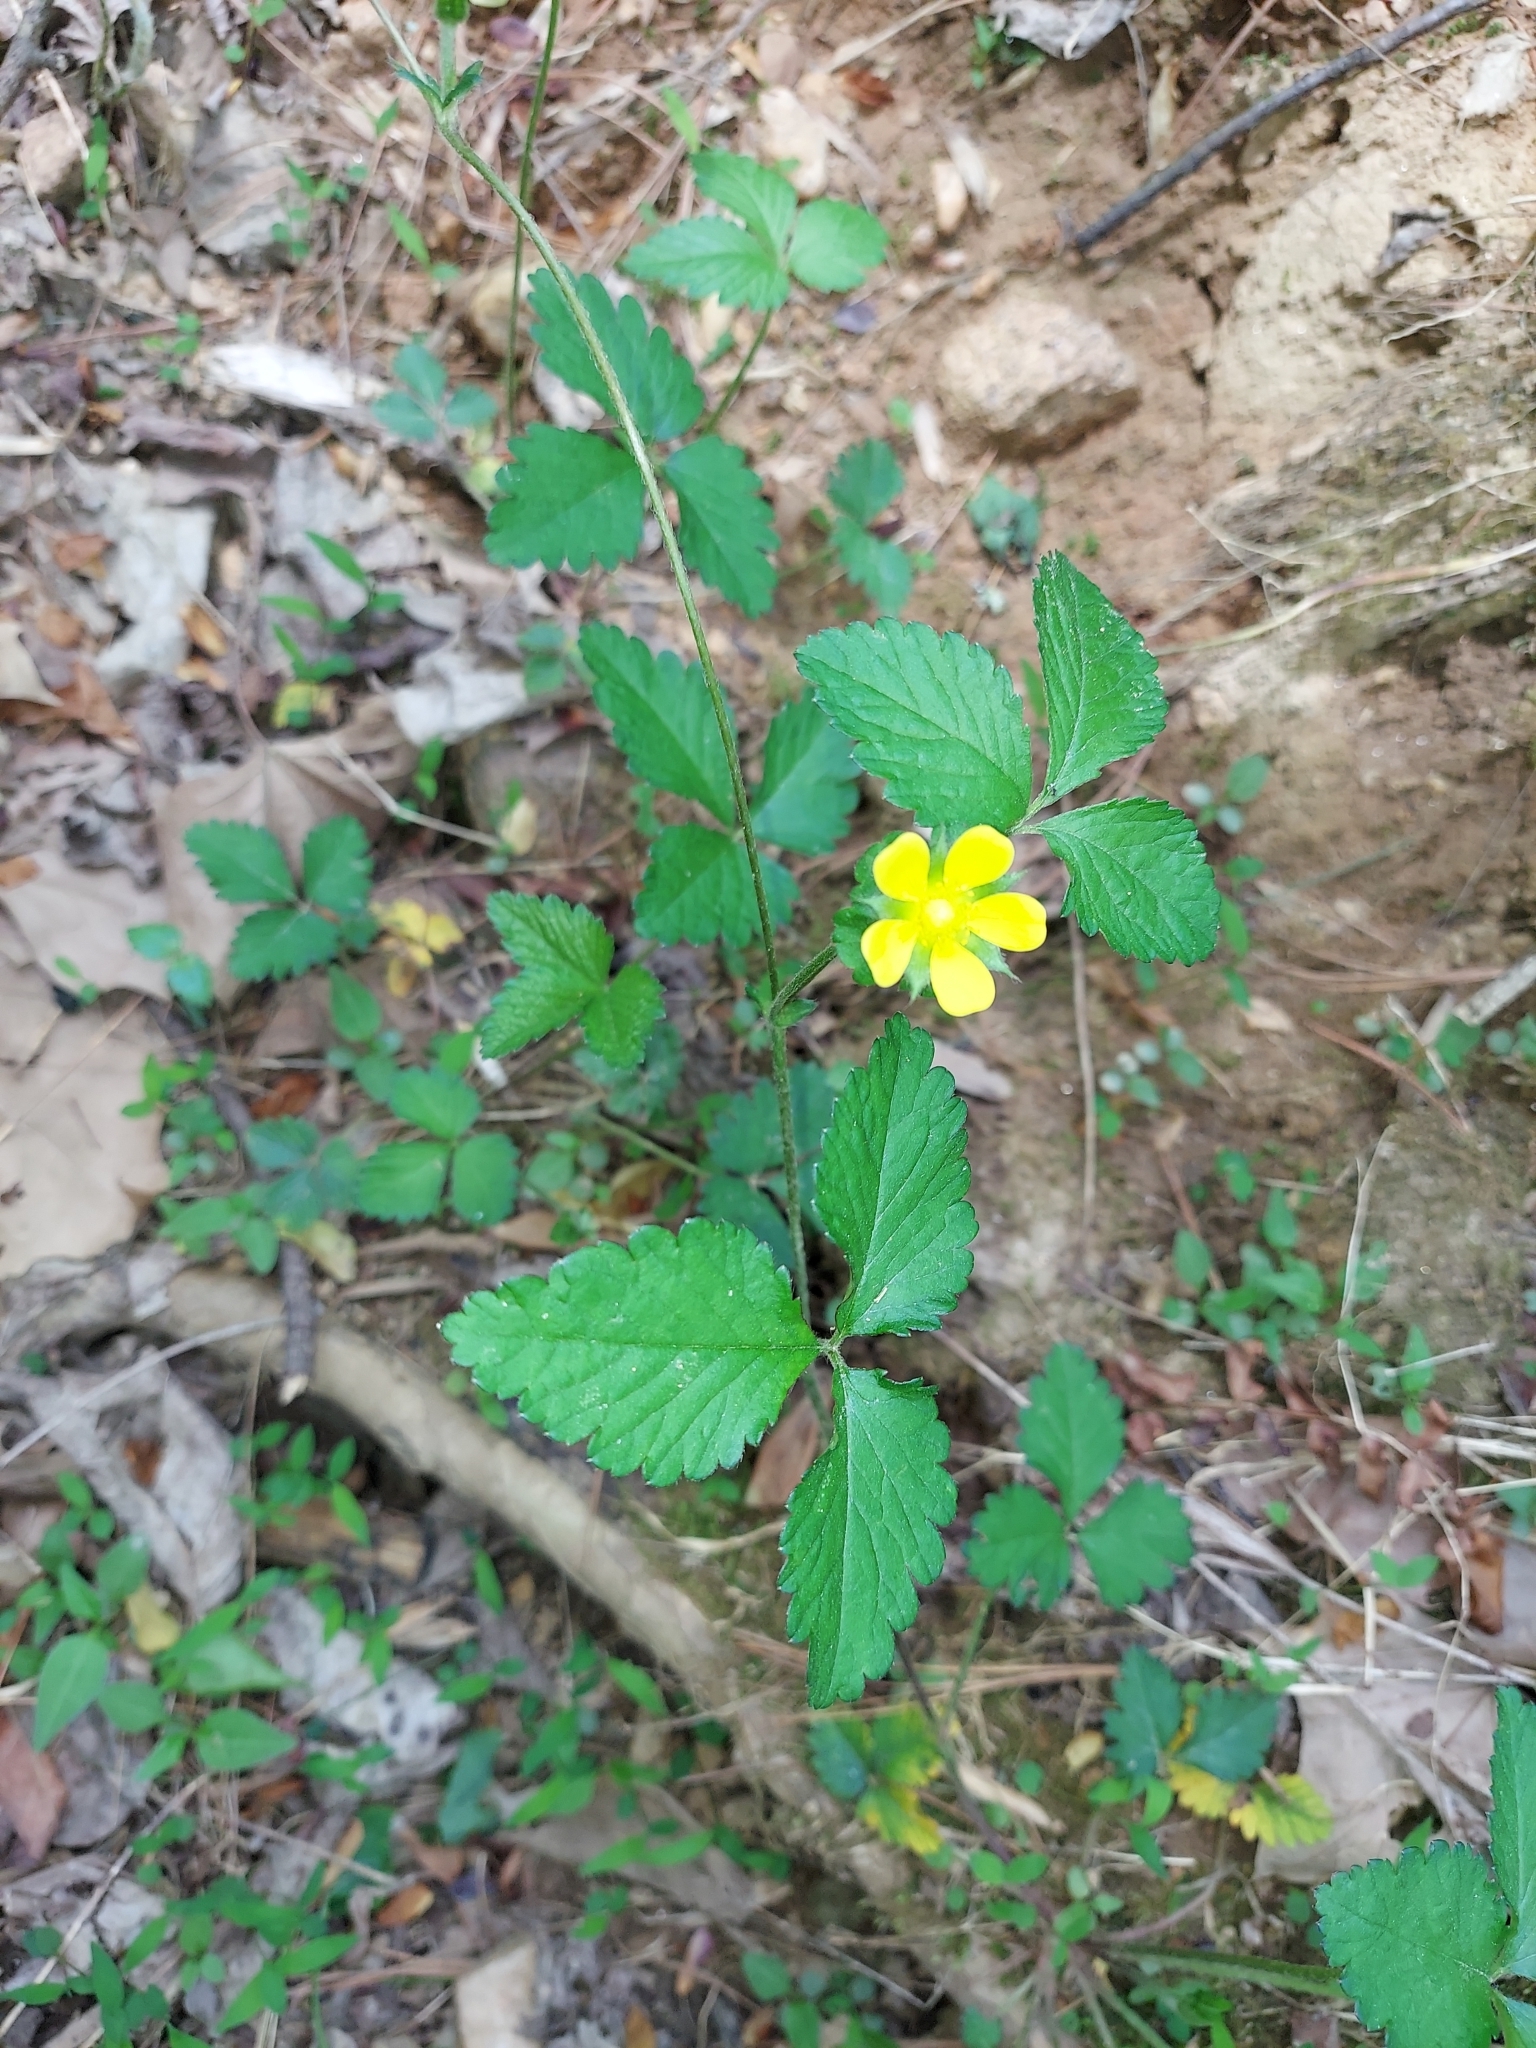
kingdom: Plantae
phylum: Tracheophyta
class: Magnoliopsida
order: Rosales
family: Rosaceae
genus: Potentilla
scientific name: Potentilla indica
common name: Yellow-flowered strawberry
